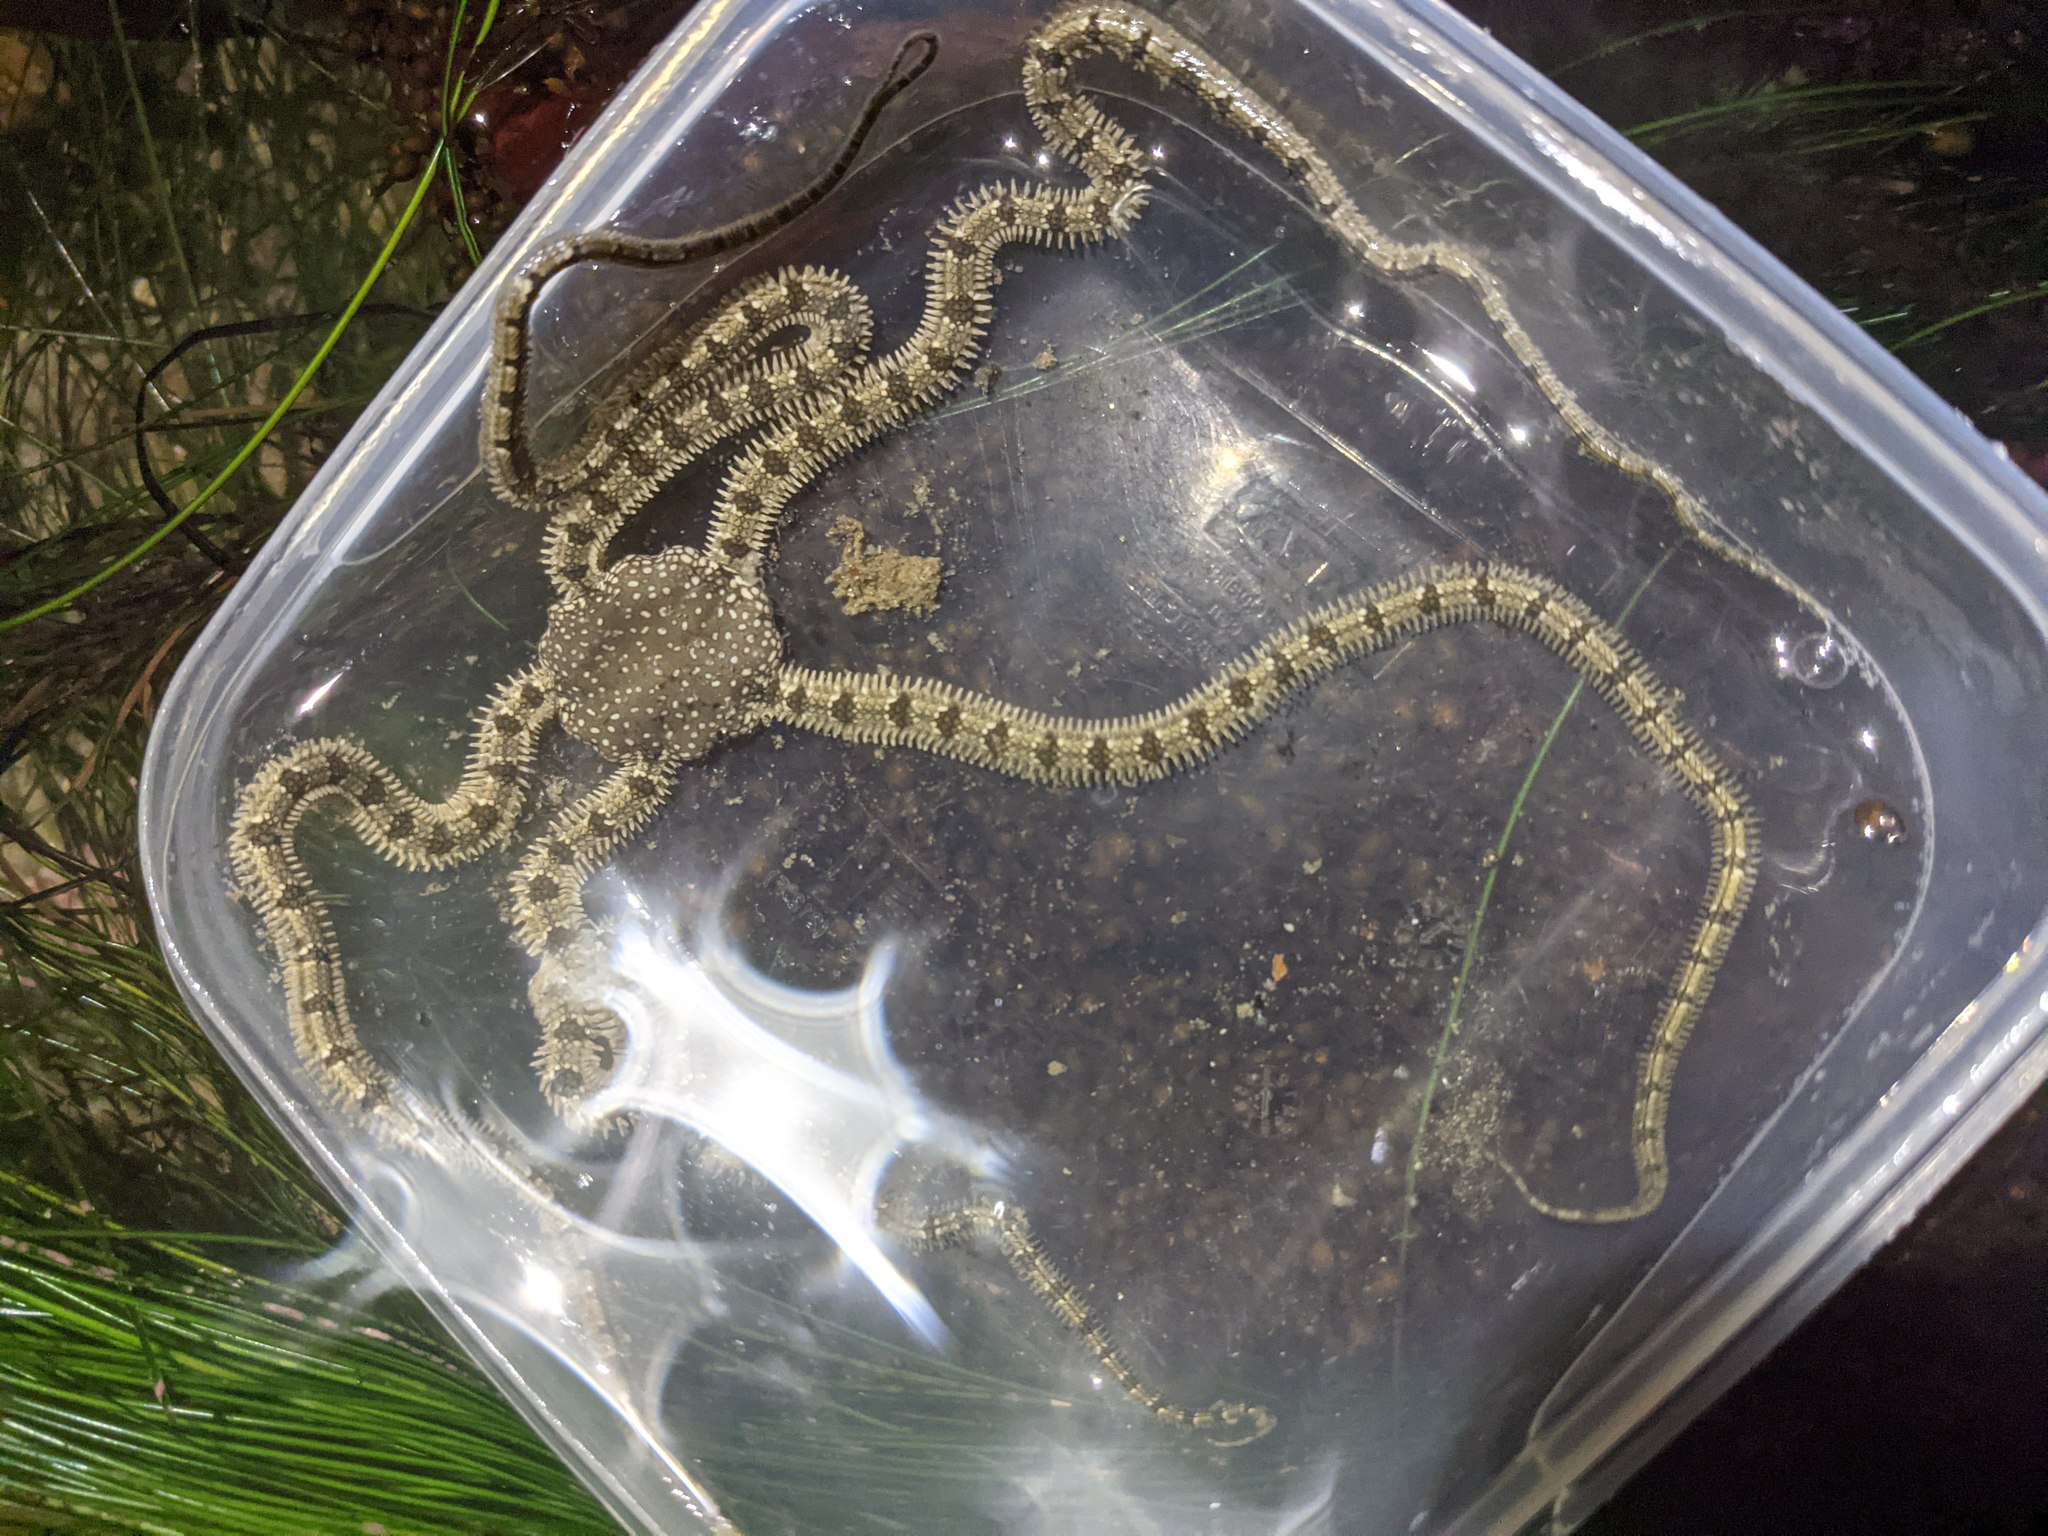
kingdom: Animalia
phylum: Echinodermata
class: Ophiuroidea
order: Amphilepidida
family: Ophionereididae
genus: Ophionereis
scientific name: Ophionereis annulata
